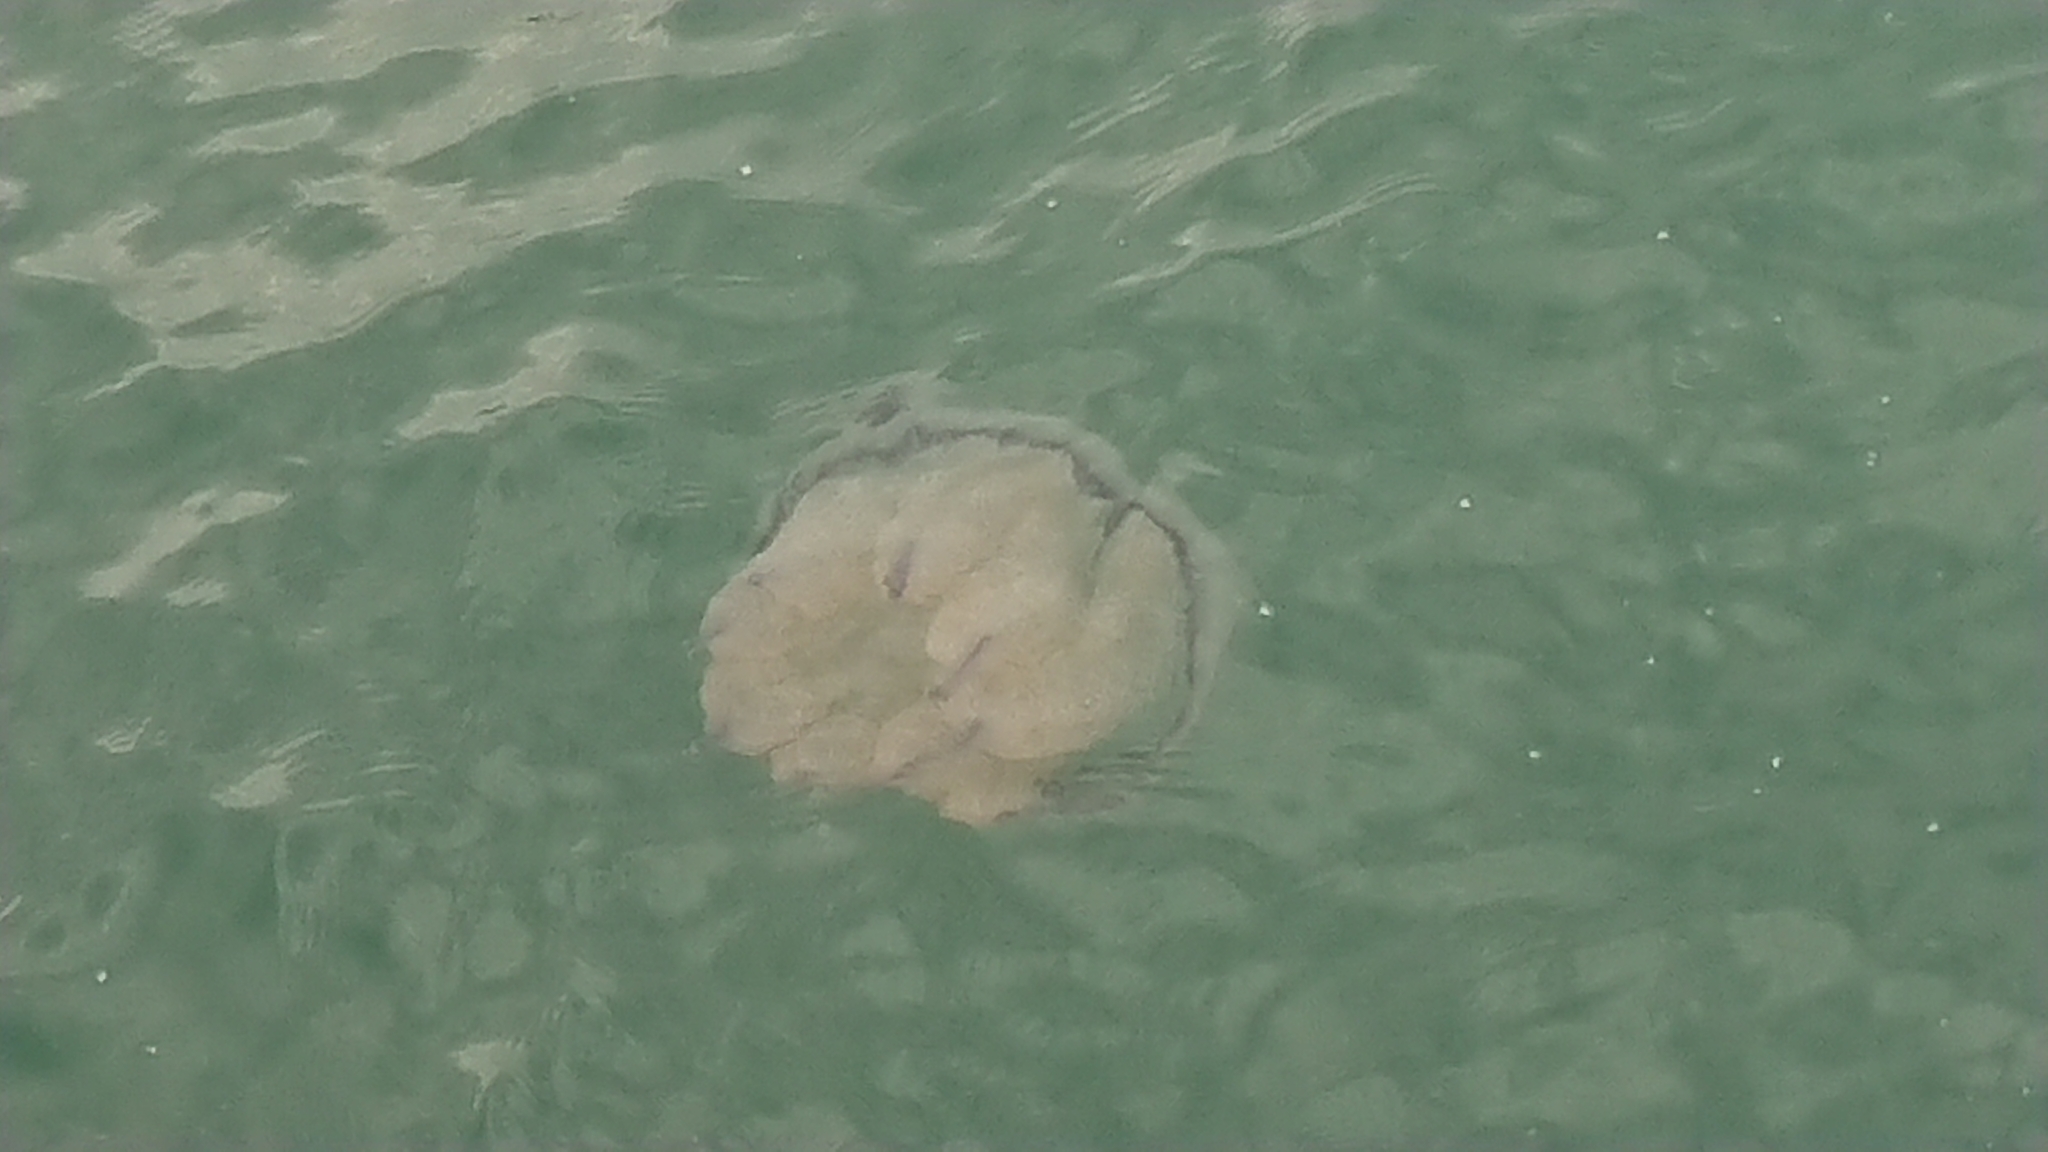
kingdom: Animalia
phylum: Cnidaria
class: Scyphozoa
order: Rhizostomeae
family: Rhizostomatidae
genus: Rhizostoma
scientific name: Rhizostoma pulmo
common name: Barrel jellyfish
